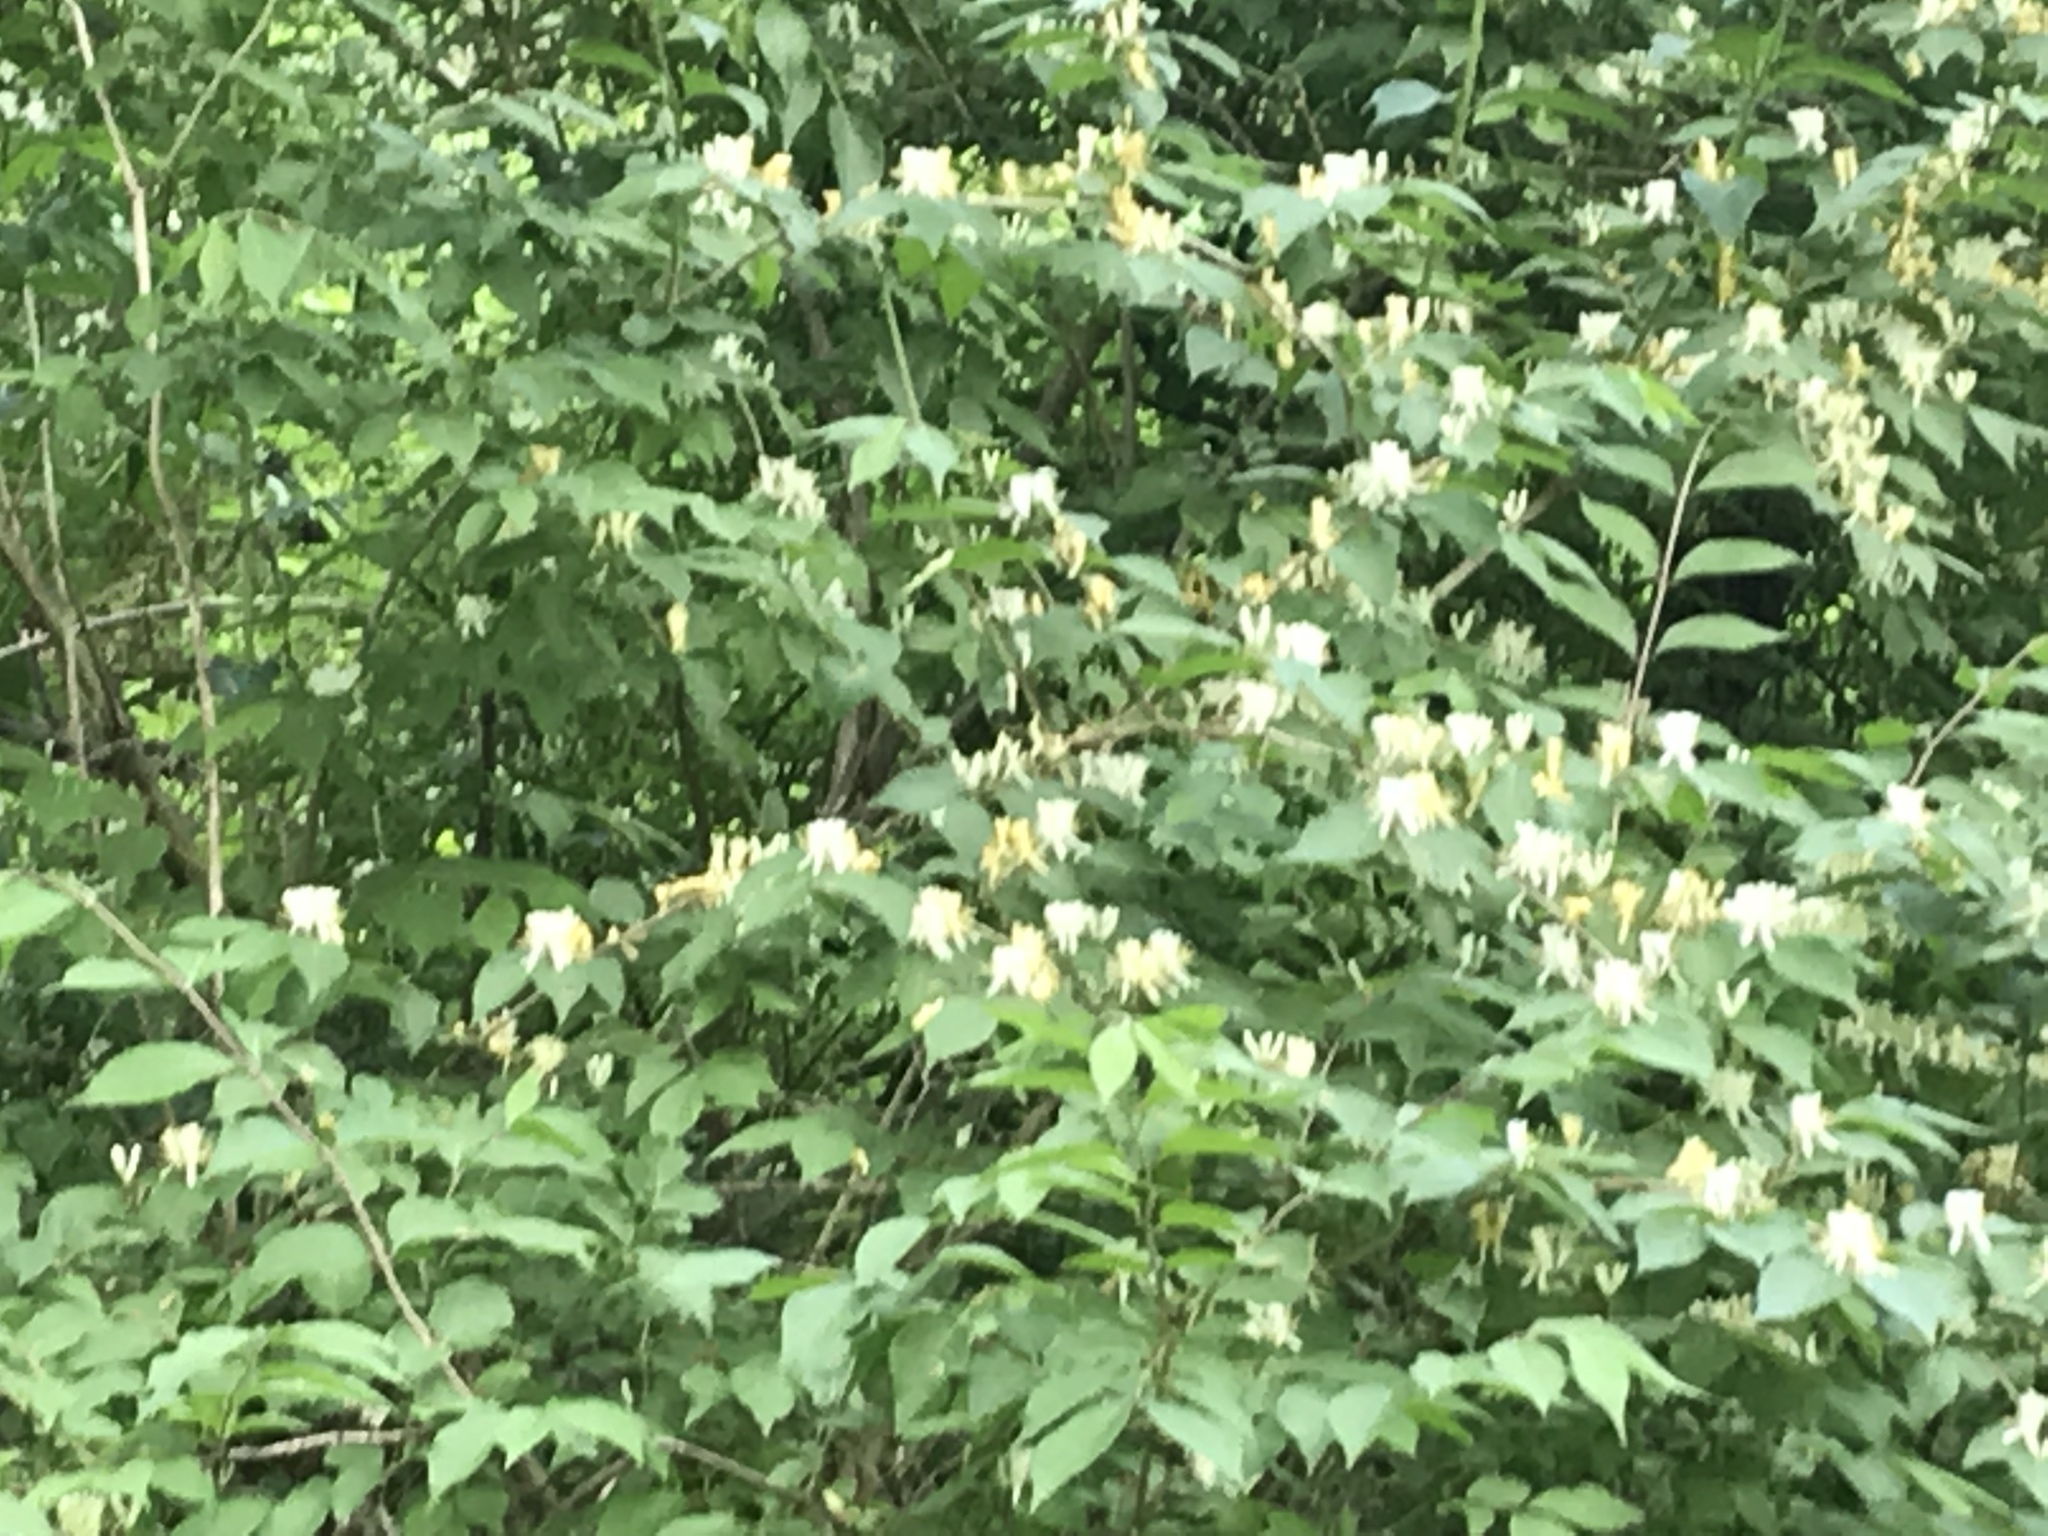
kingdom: Plantae
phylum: Tracheophyta
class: Magnoliopsida
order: Dipsacales
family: Caprifoliaceae
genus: Lonicera
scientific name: Lonicera maackii
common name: Amur honeysuckle
